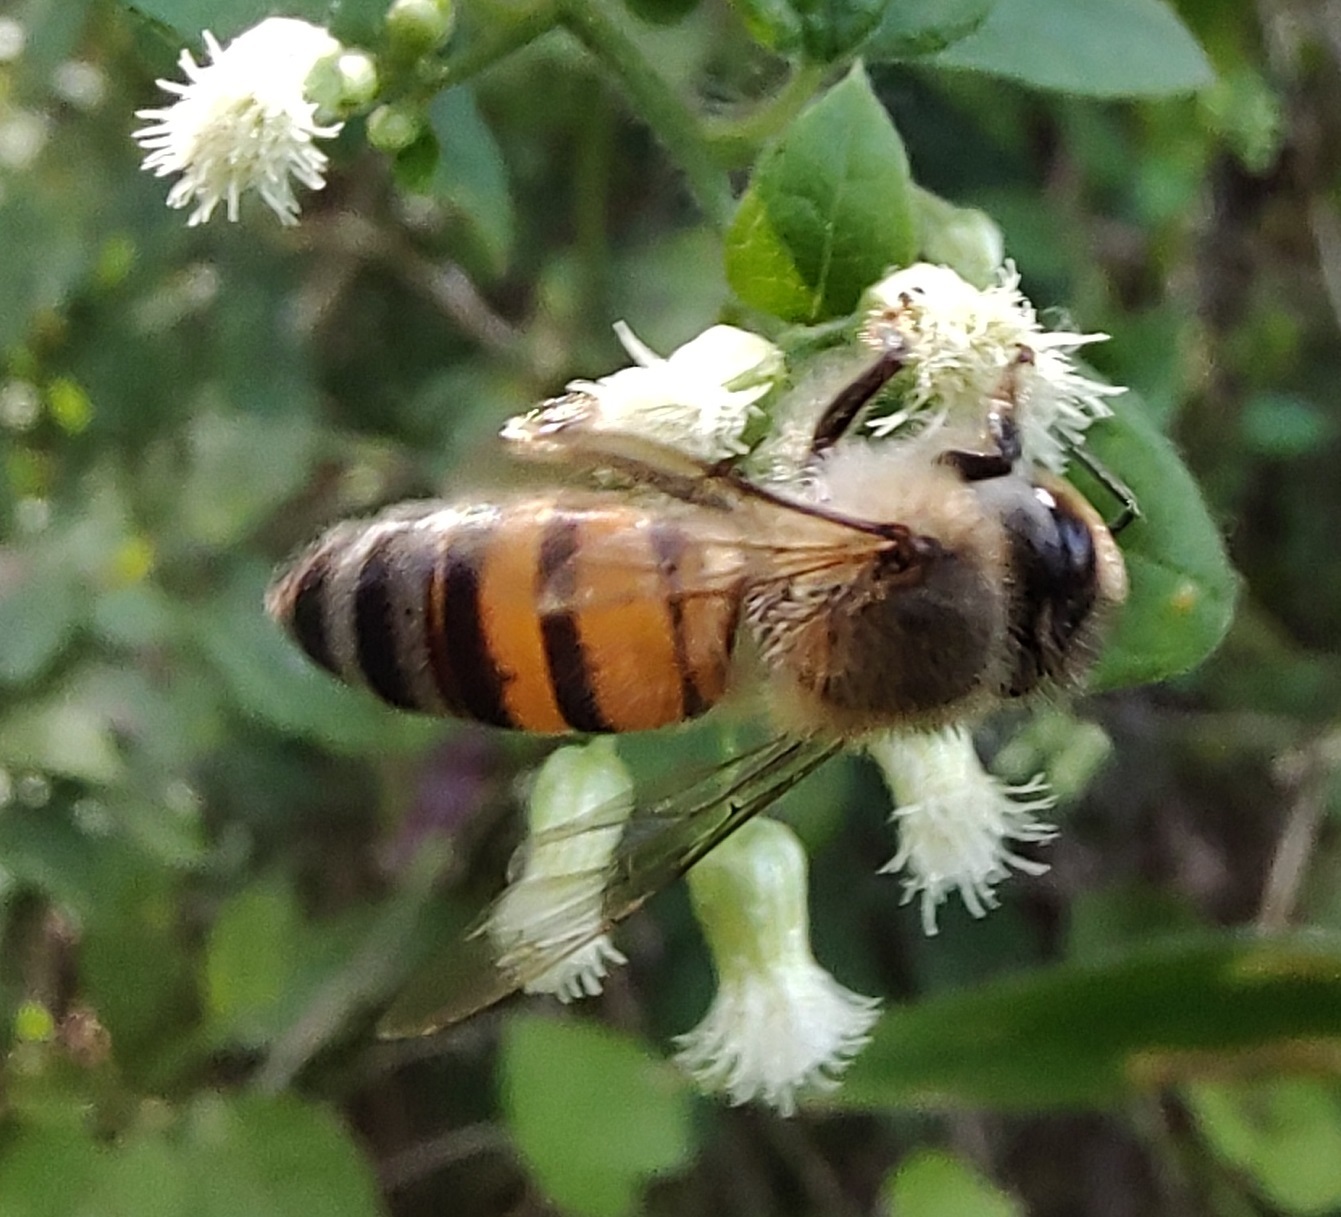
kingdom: Animalia
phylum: Arthropoda
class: Insecta
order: Hymenoptera
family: Apidae
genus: Apis
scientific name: Apis mellifera
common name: Honey bee
